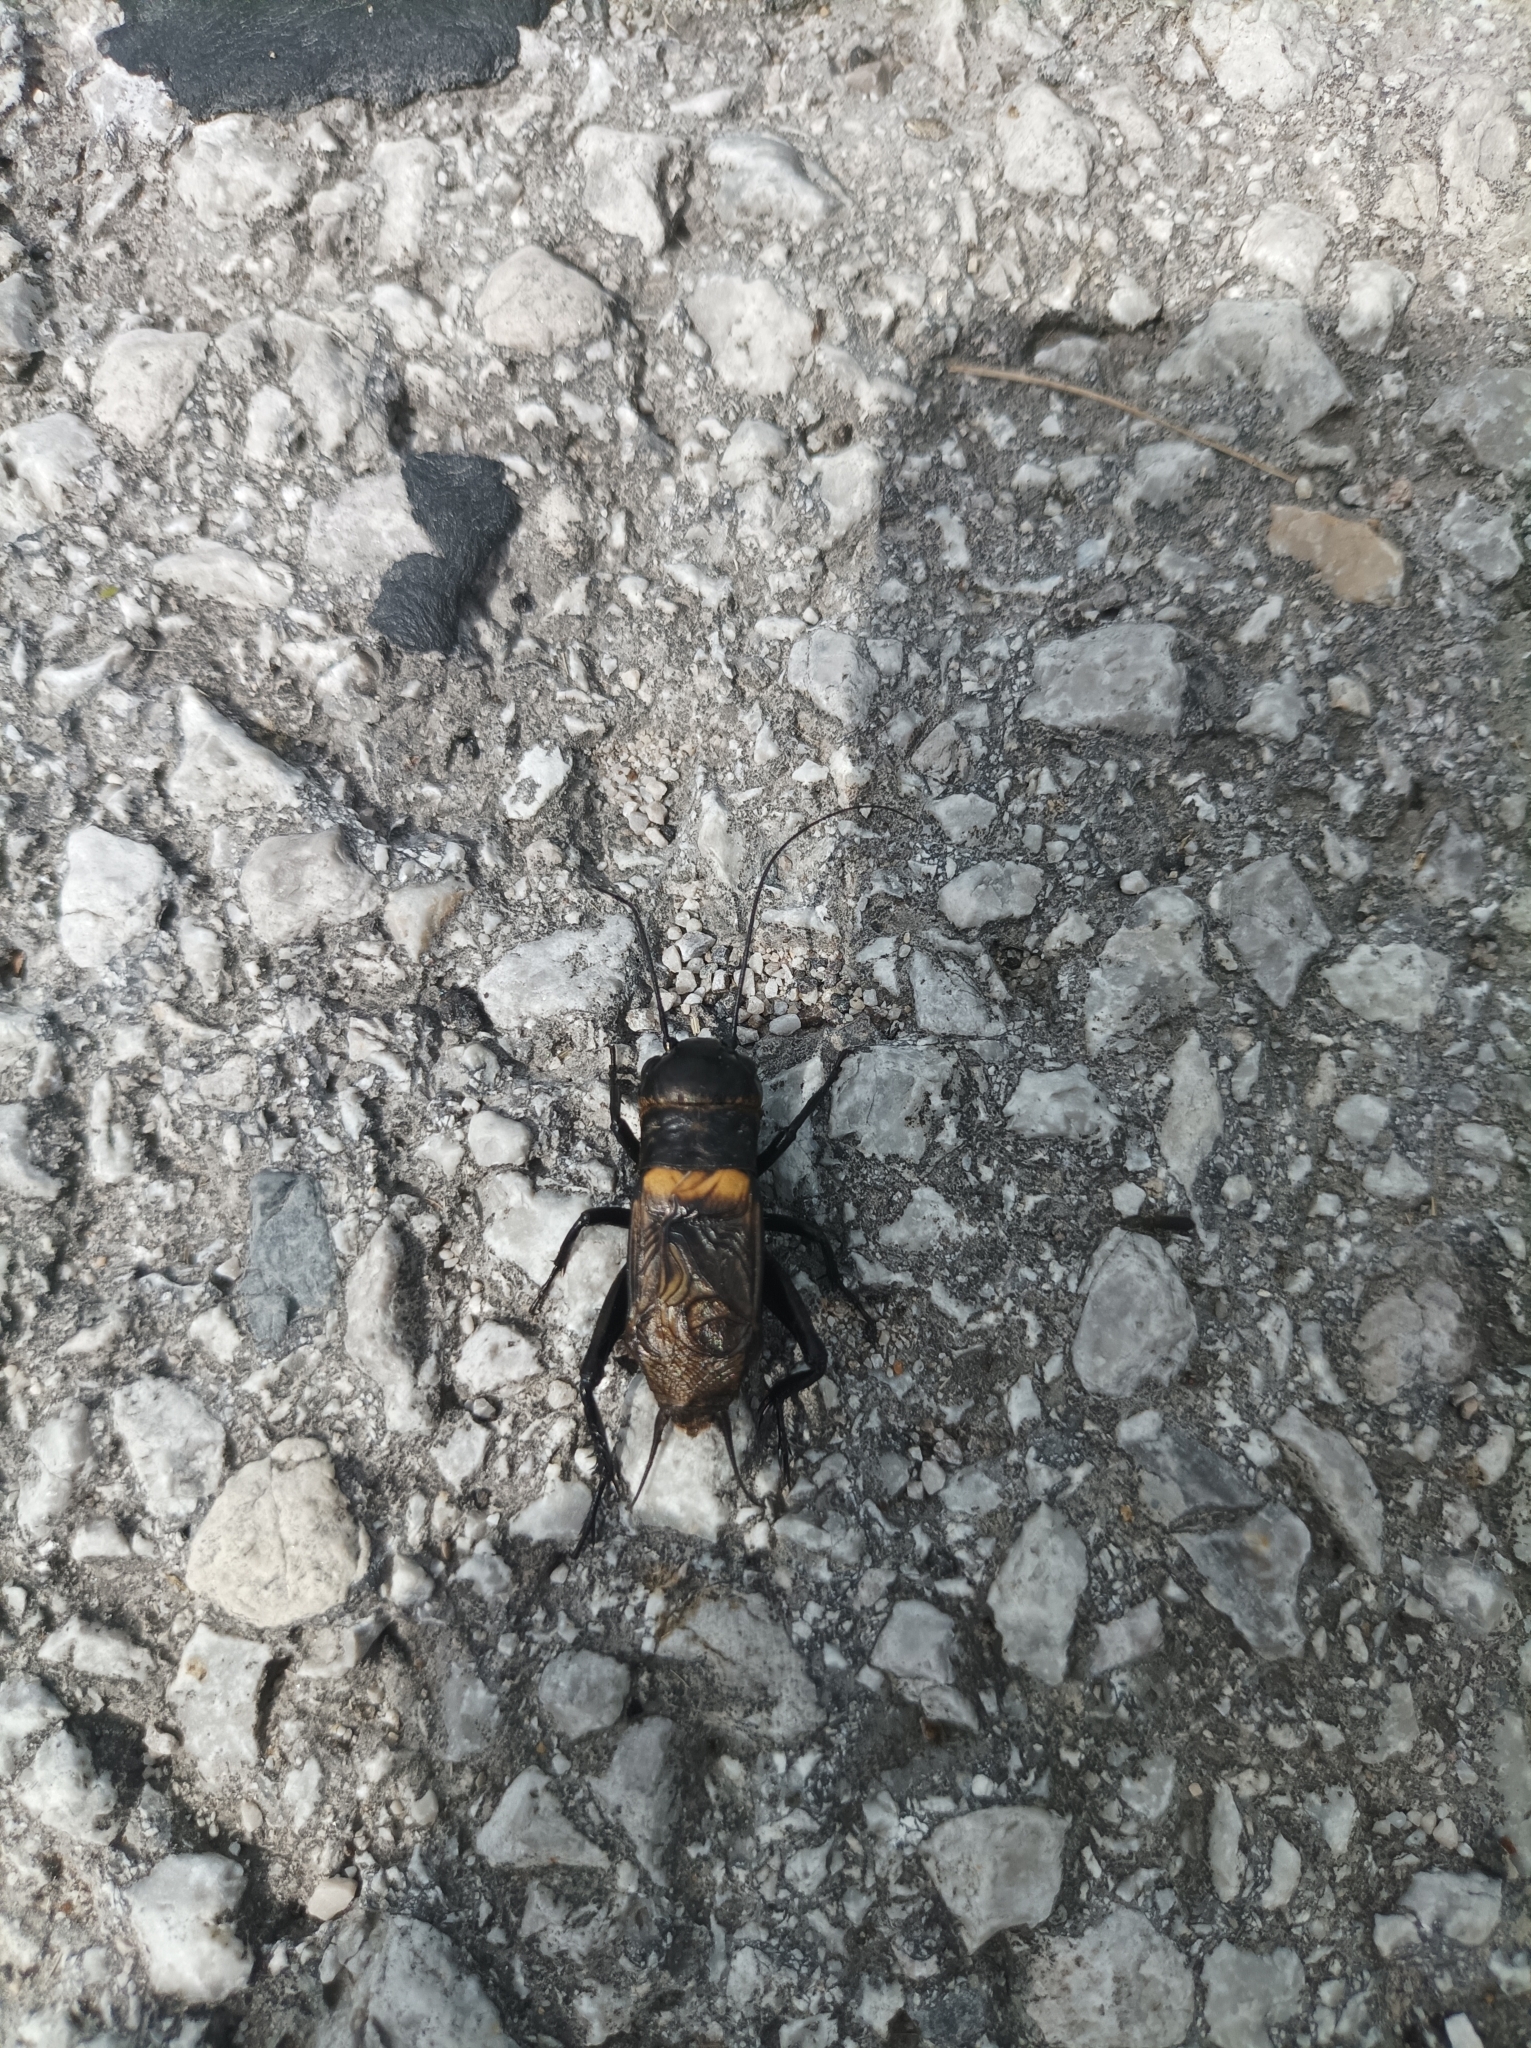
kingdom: Animalia
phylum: Arthropoda
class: Insecta
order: Orthoptera
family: Gryllidae
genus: Gryllus
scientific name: Gryllus campestris
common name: Field cricket
